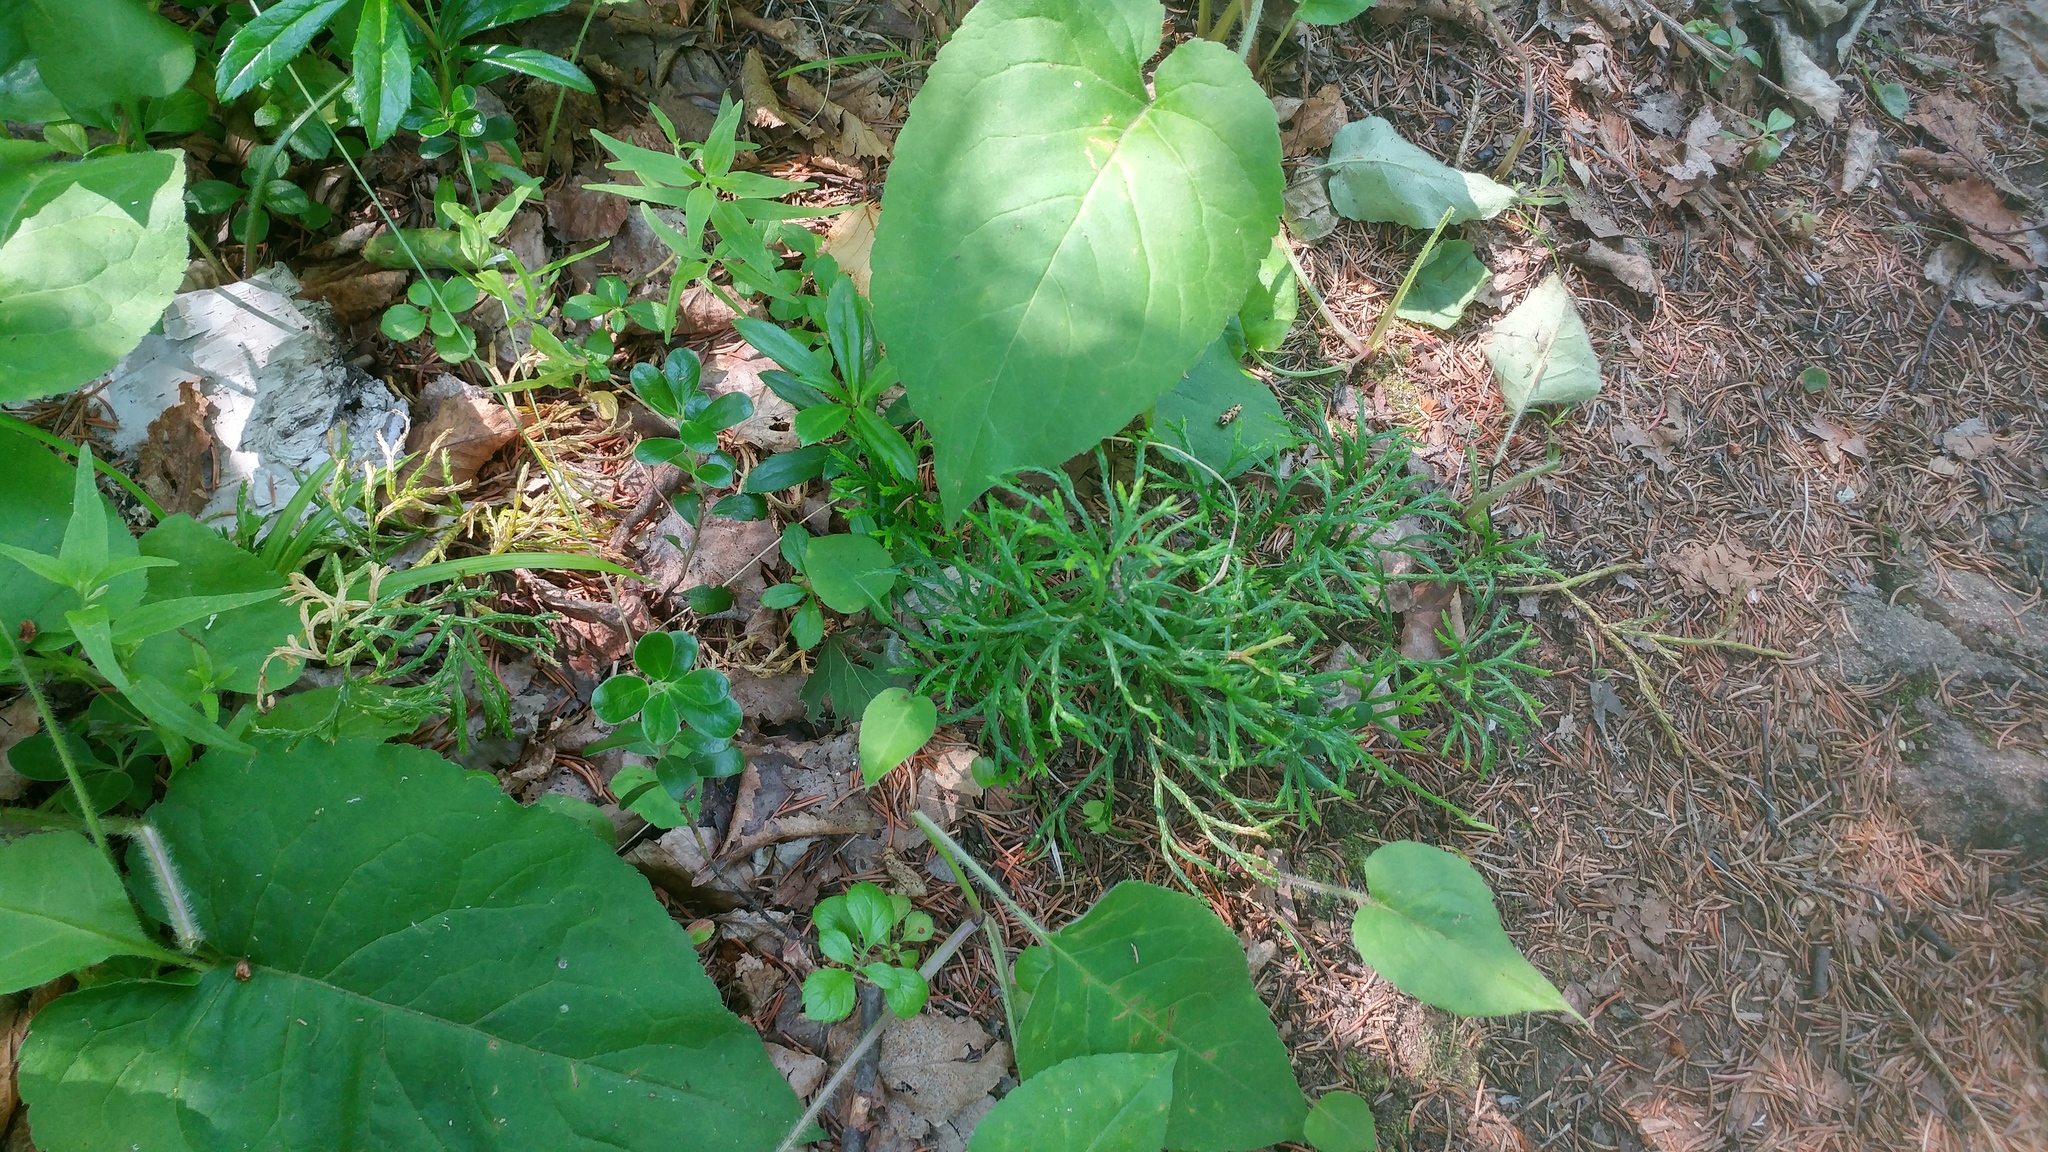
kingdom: Plantae
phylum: Tracheophyta
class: Lycopodiopsida
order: Lycopodiales
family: Lycopodiaceae
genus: Diphasiastrum
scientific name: Diphasiastrum complanatum
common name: Northern running-pine
